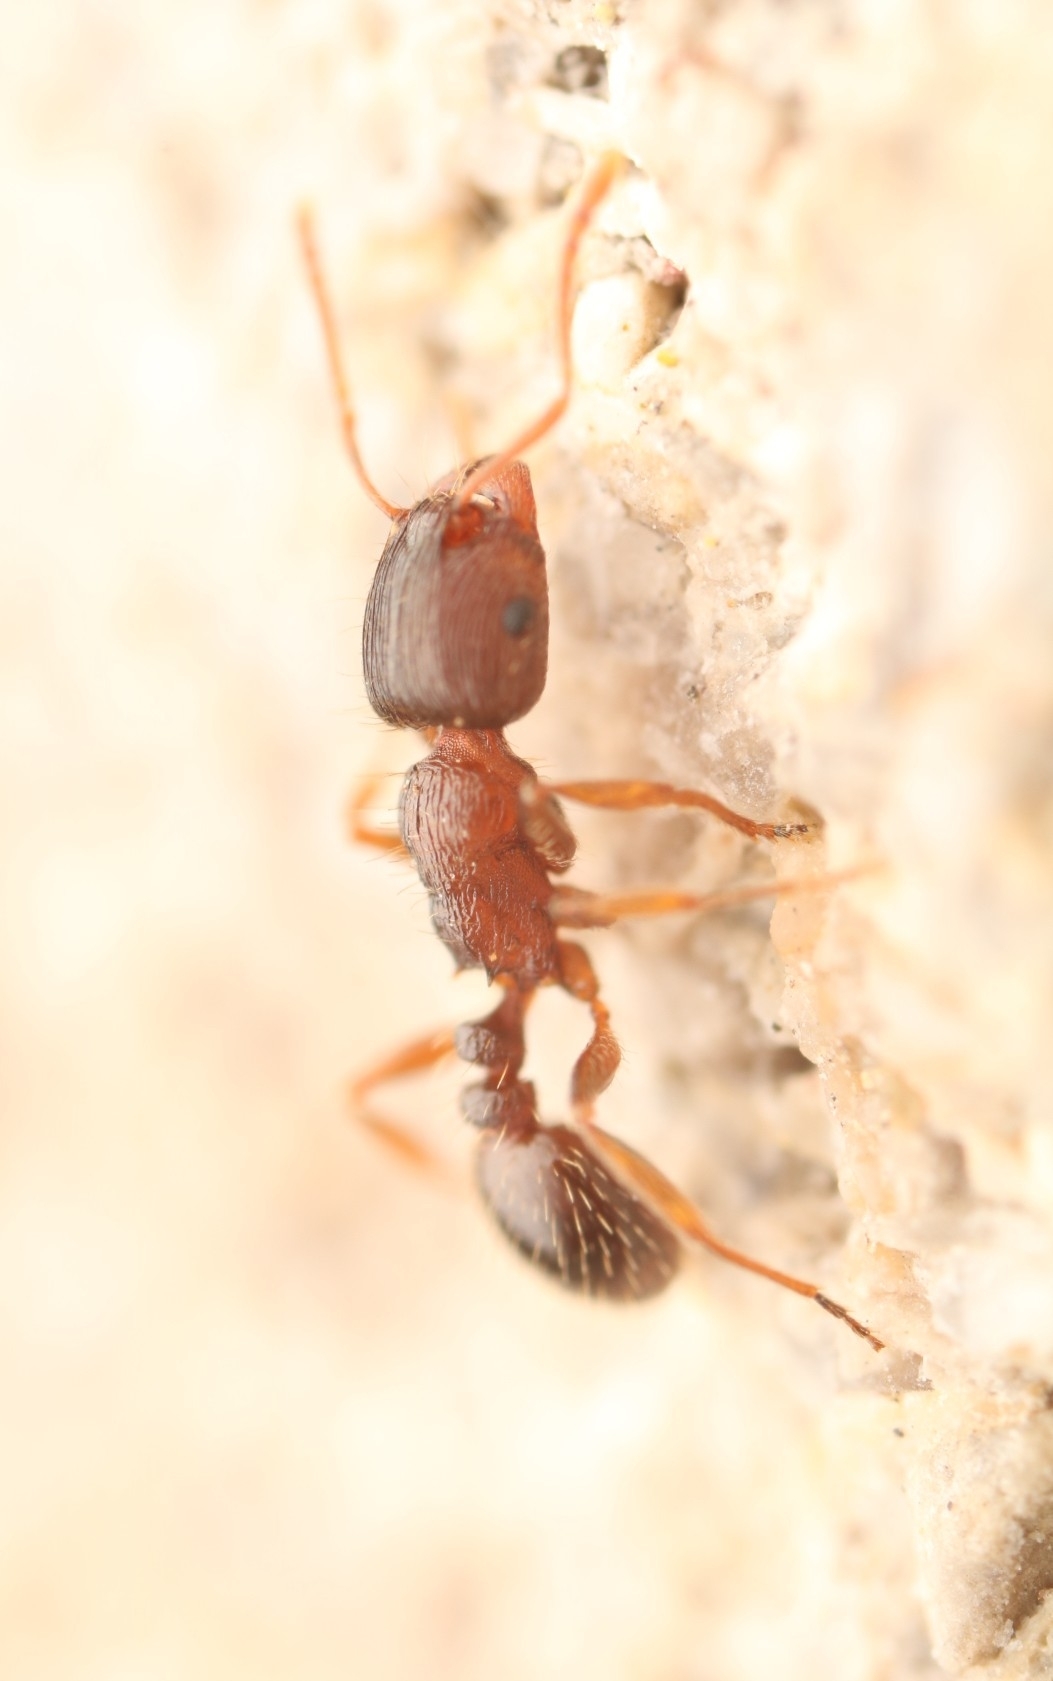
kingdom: Animalia
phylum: Arthropoda
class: Insecta
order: Hymenoptera
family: Formicidae
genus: Tetramorium
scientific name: Tetramorium immigrans
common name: Pavement ant
